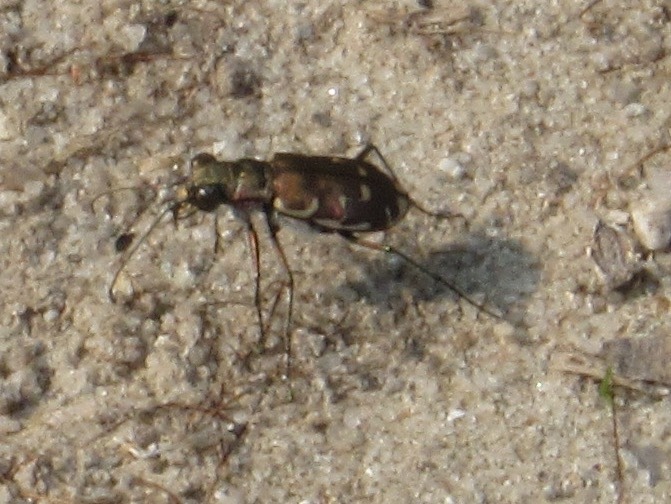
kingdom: Animalia
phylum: Arthropoda
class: Insecta
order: Coleoptera
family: Carabidae
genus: Cicindela
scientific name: Cicindela repanda
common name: Bronzed tiger beetle
